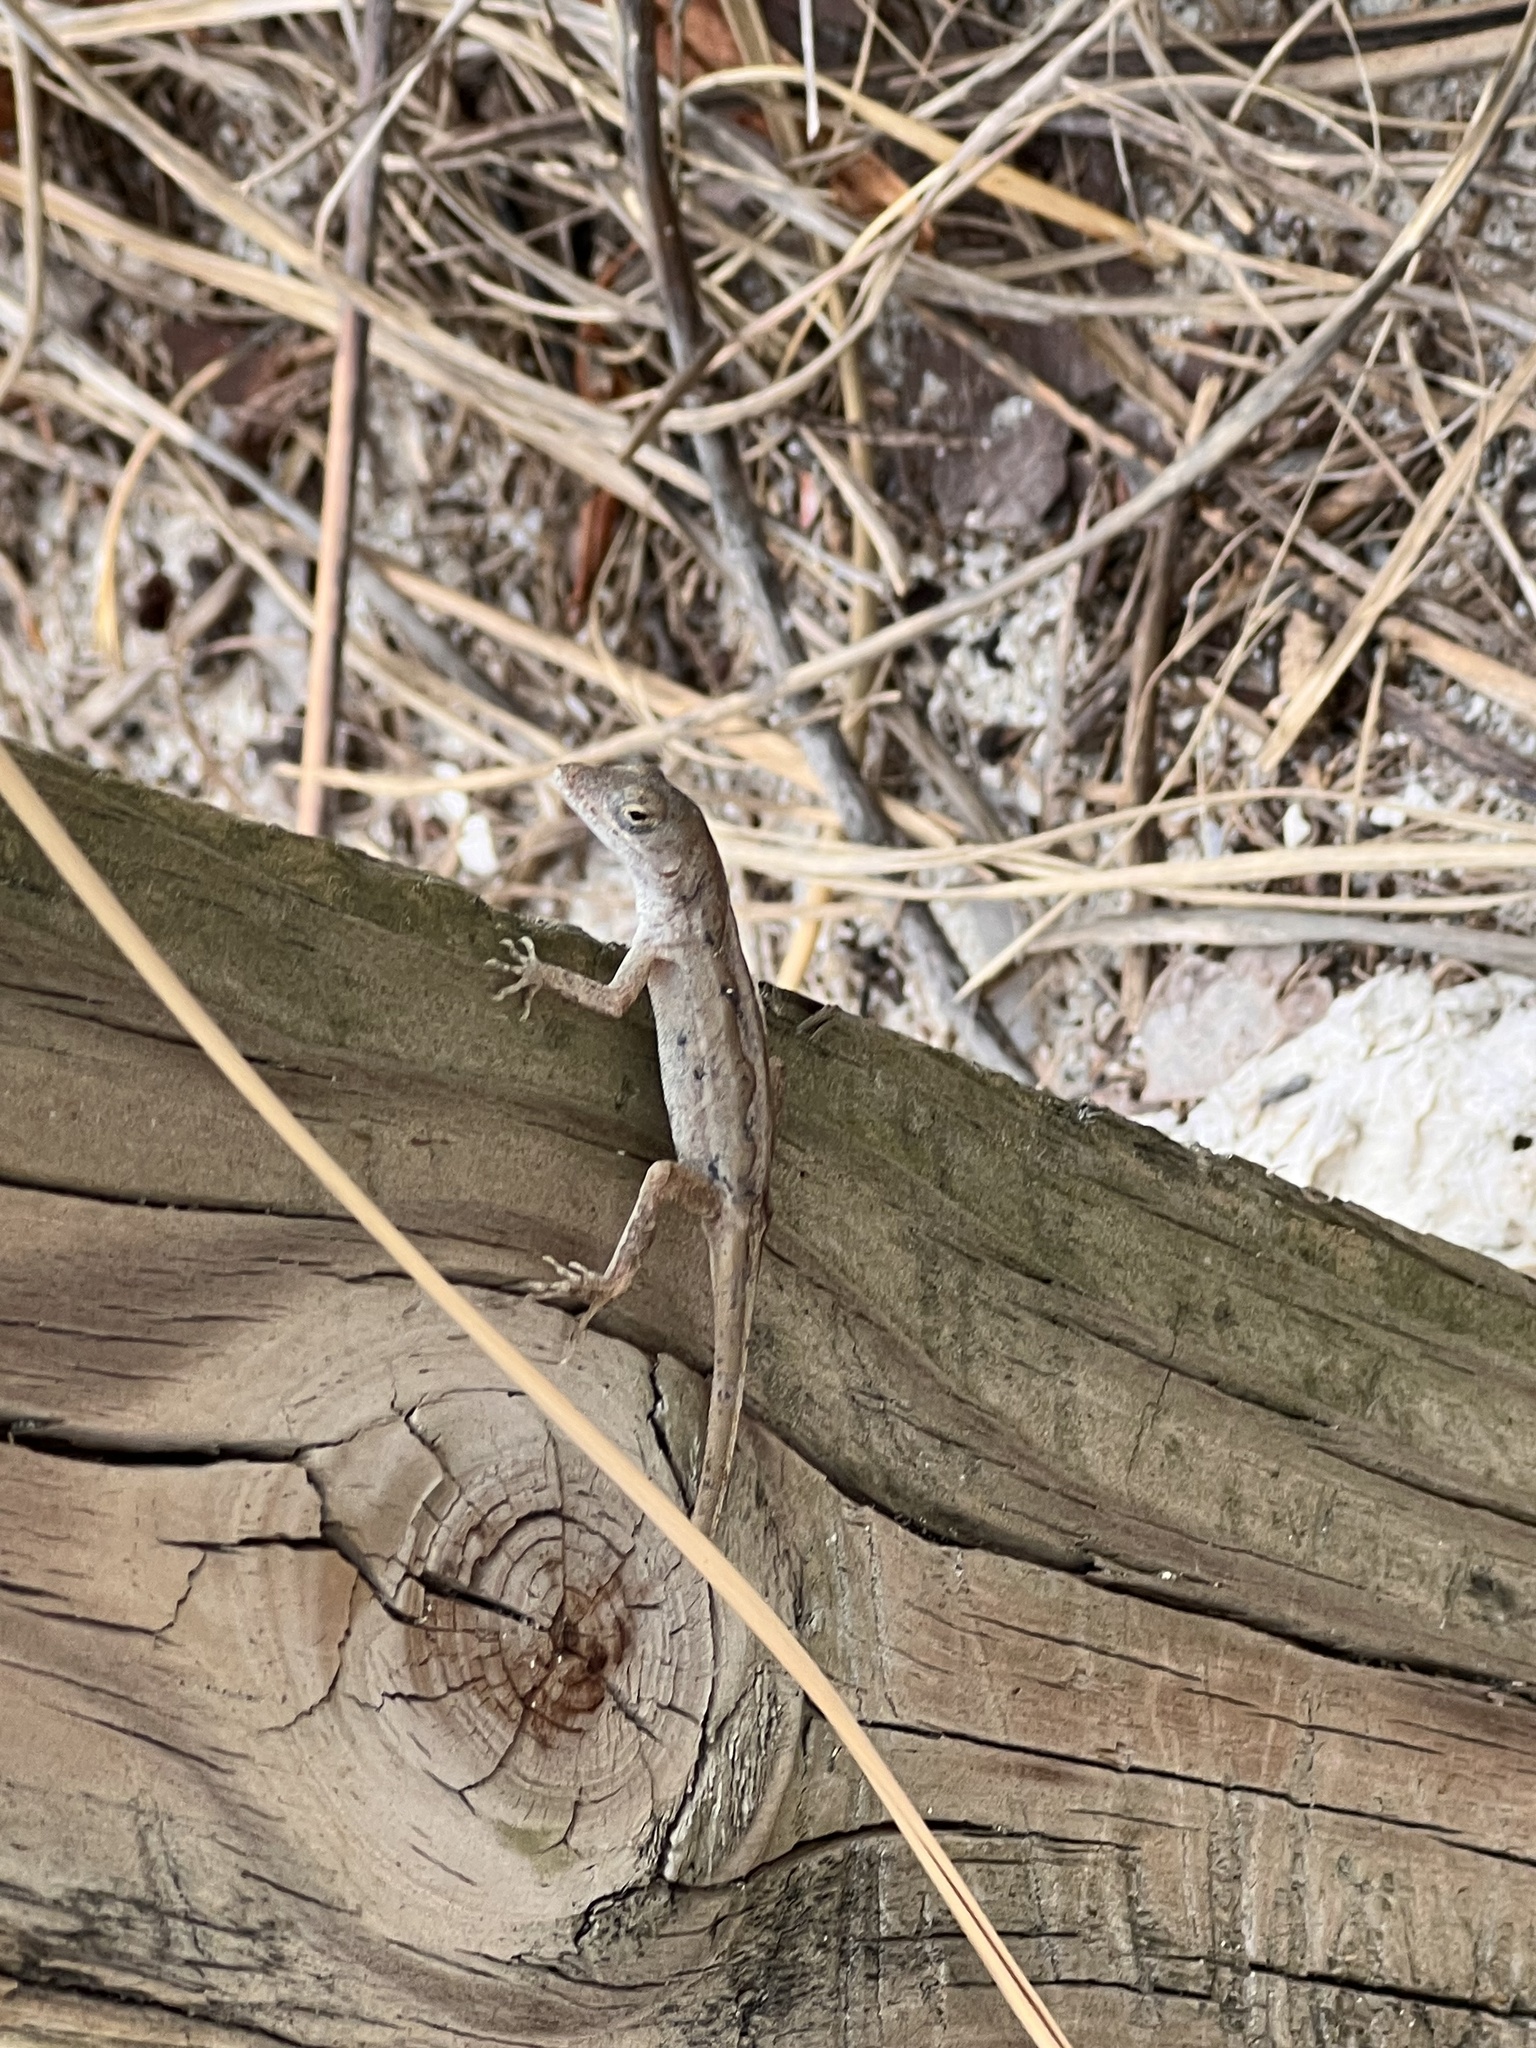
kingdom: Animalia
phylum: Chordata
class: Squamata
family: Dactyloidae
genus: Anolis
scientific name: Anolis sagrei
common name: Brown anole
